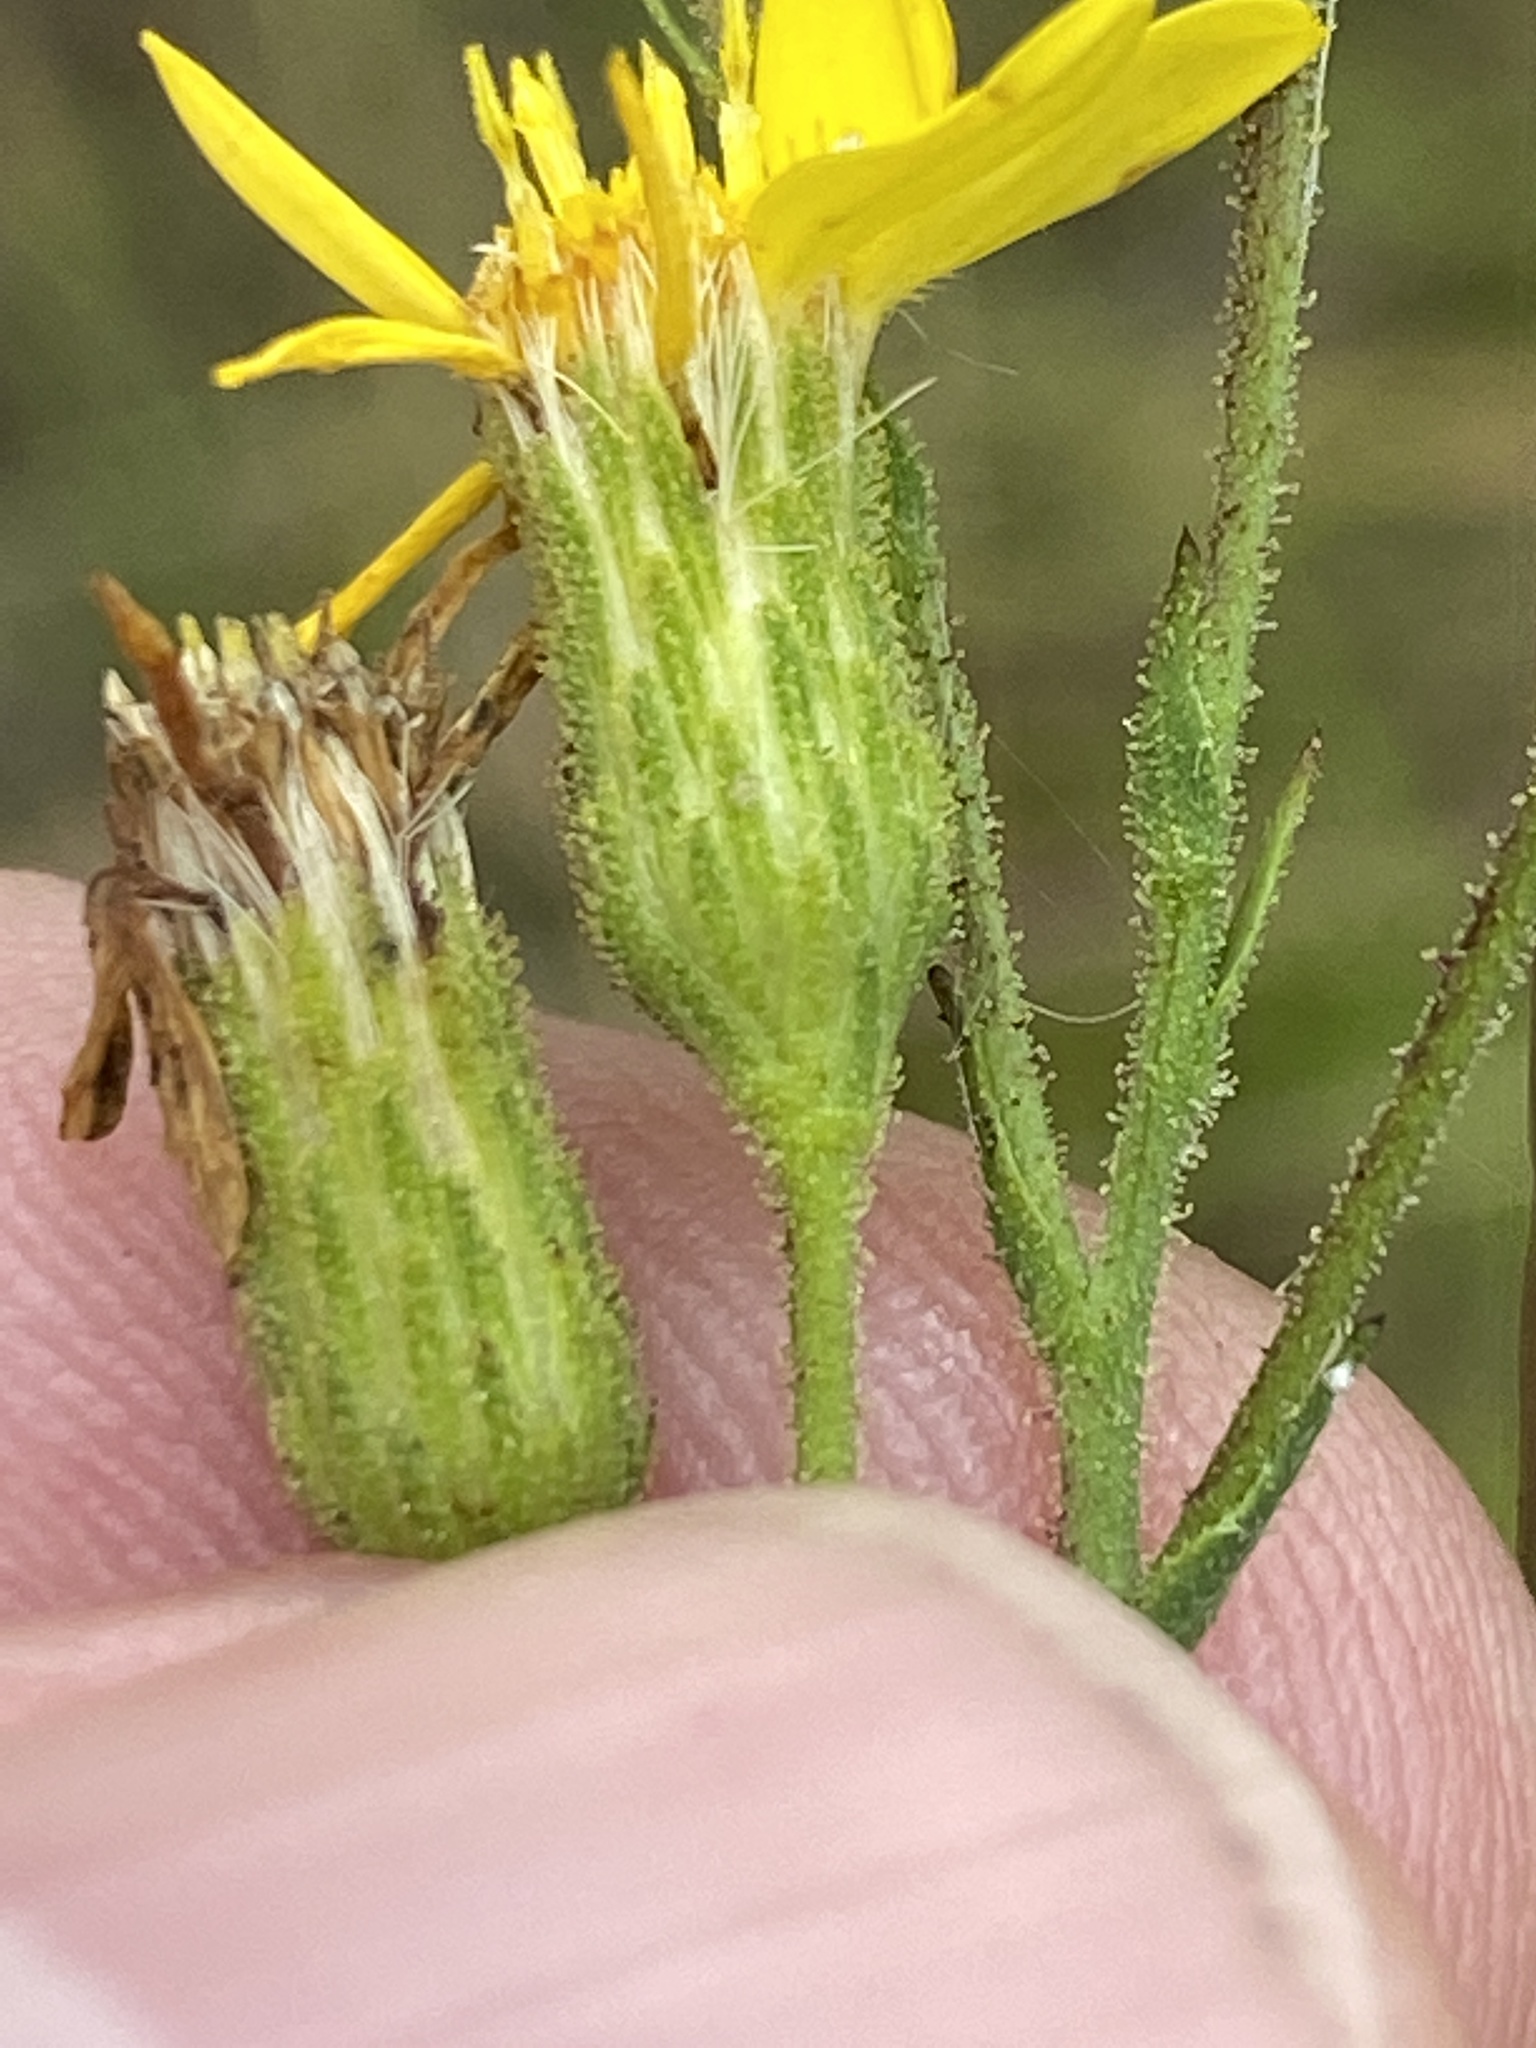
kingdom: Plantae
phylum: Tracheophyta
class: Magnoliopsida
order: Asterales
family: Asteraceae
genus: Pityopsis
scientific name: Pityopsis aspera
